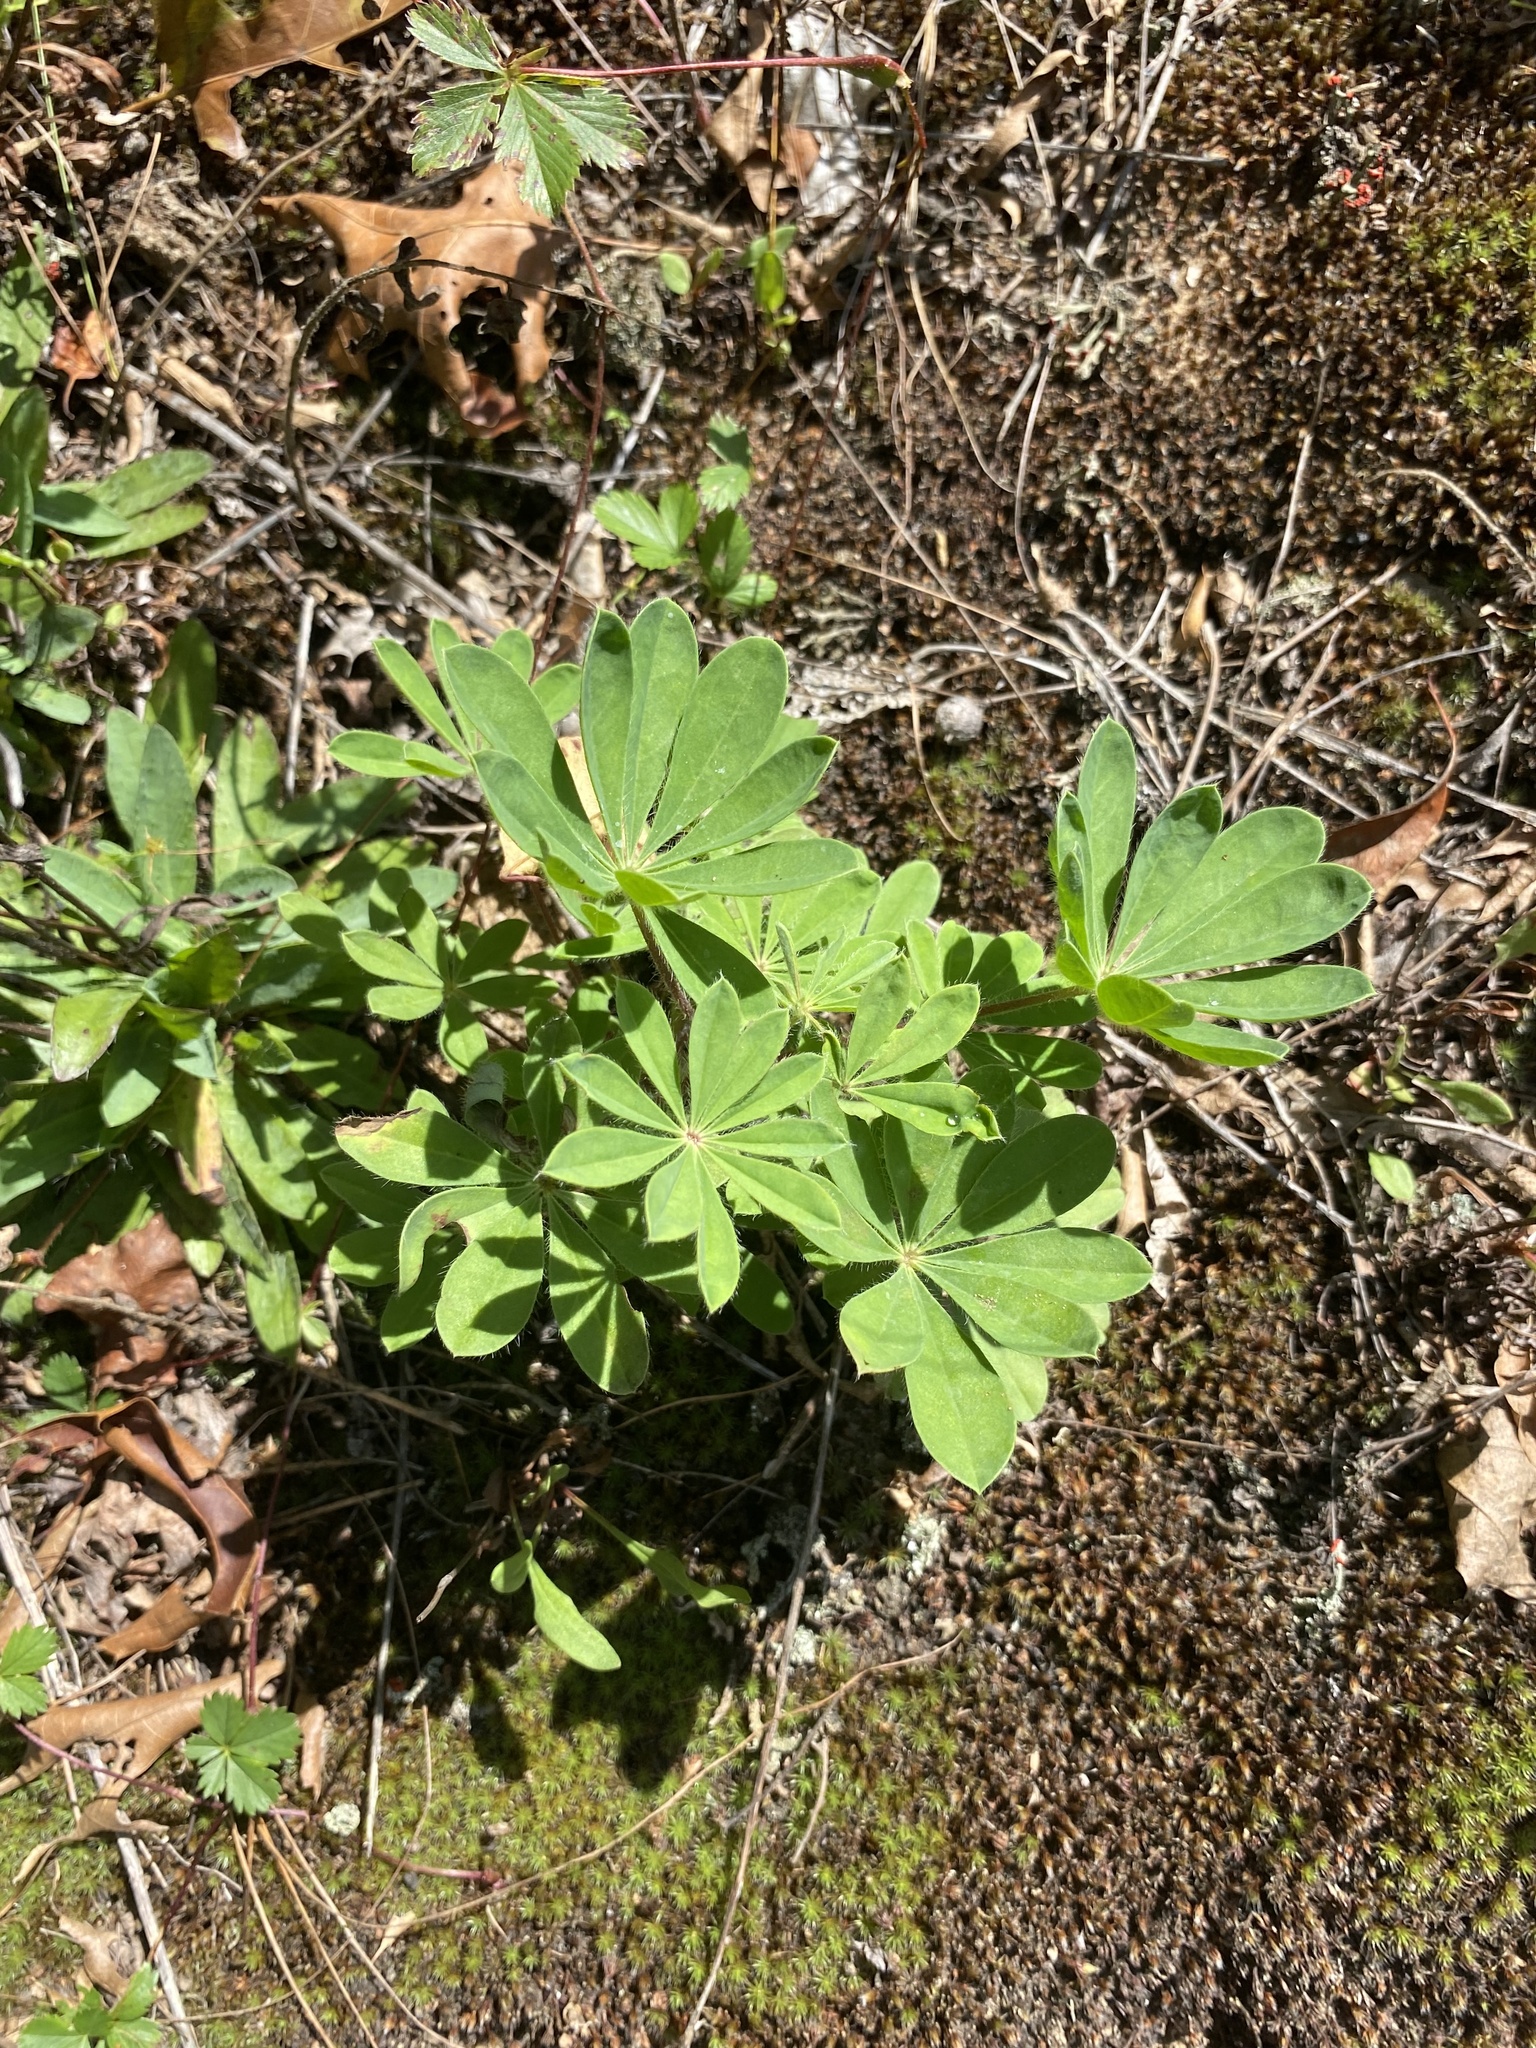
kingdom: Plantae
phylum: Tracheophyta
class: Magnoliopsida
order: Fabales
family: Fabaceae
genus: Lupinus
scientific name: Lupinus perennis
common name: Sundial lupine
